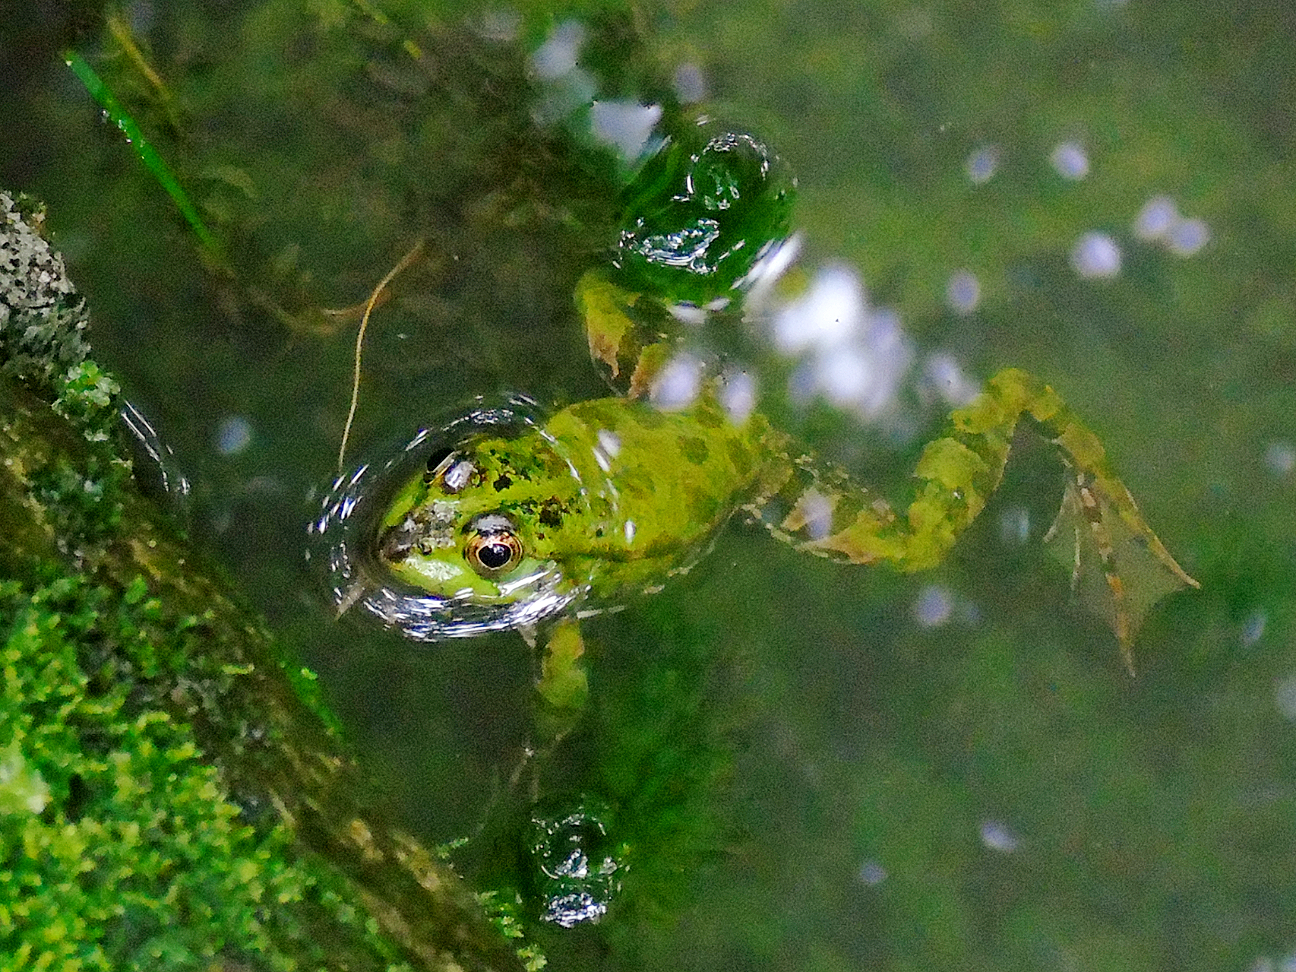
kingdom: Animalia
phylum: Chordata
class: Amphibia
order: Anura
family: Ranidae
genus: Pelophylax
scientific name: Pelophylax ridibundus
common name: Marsh frog
